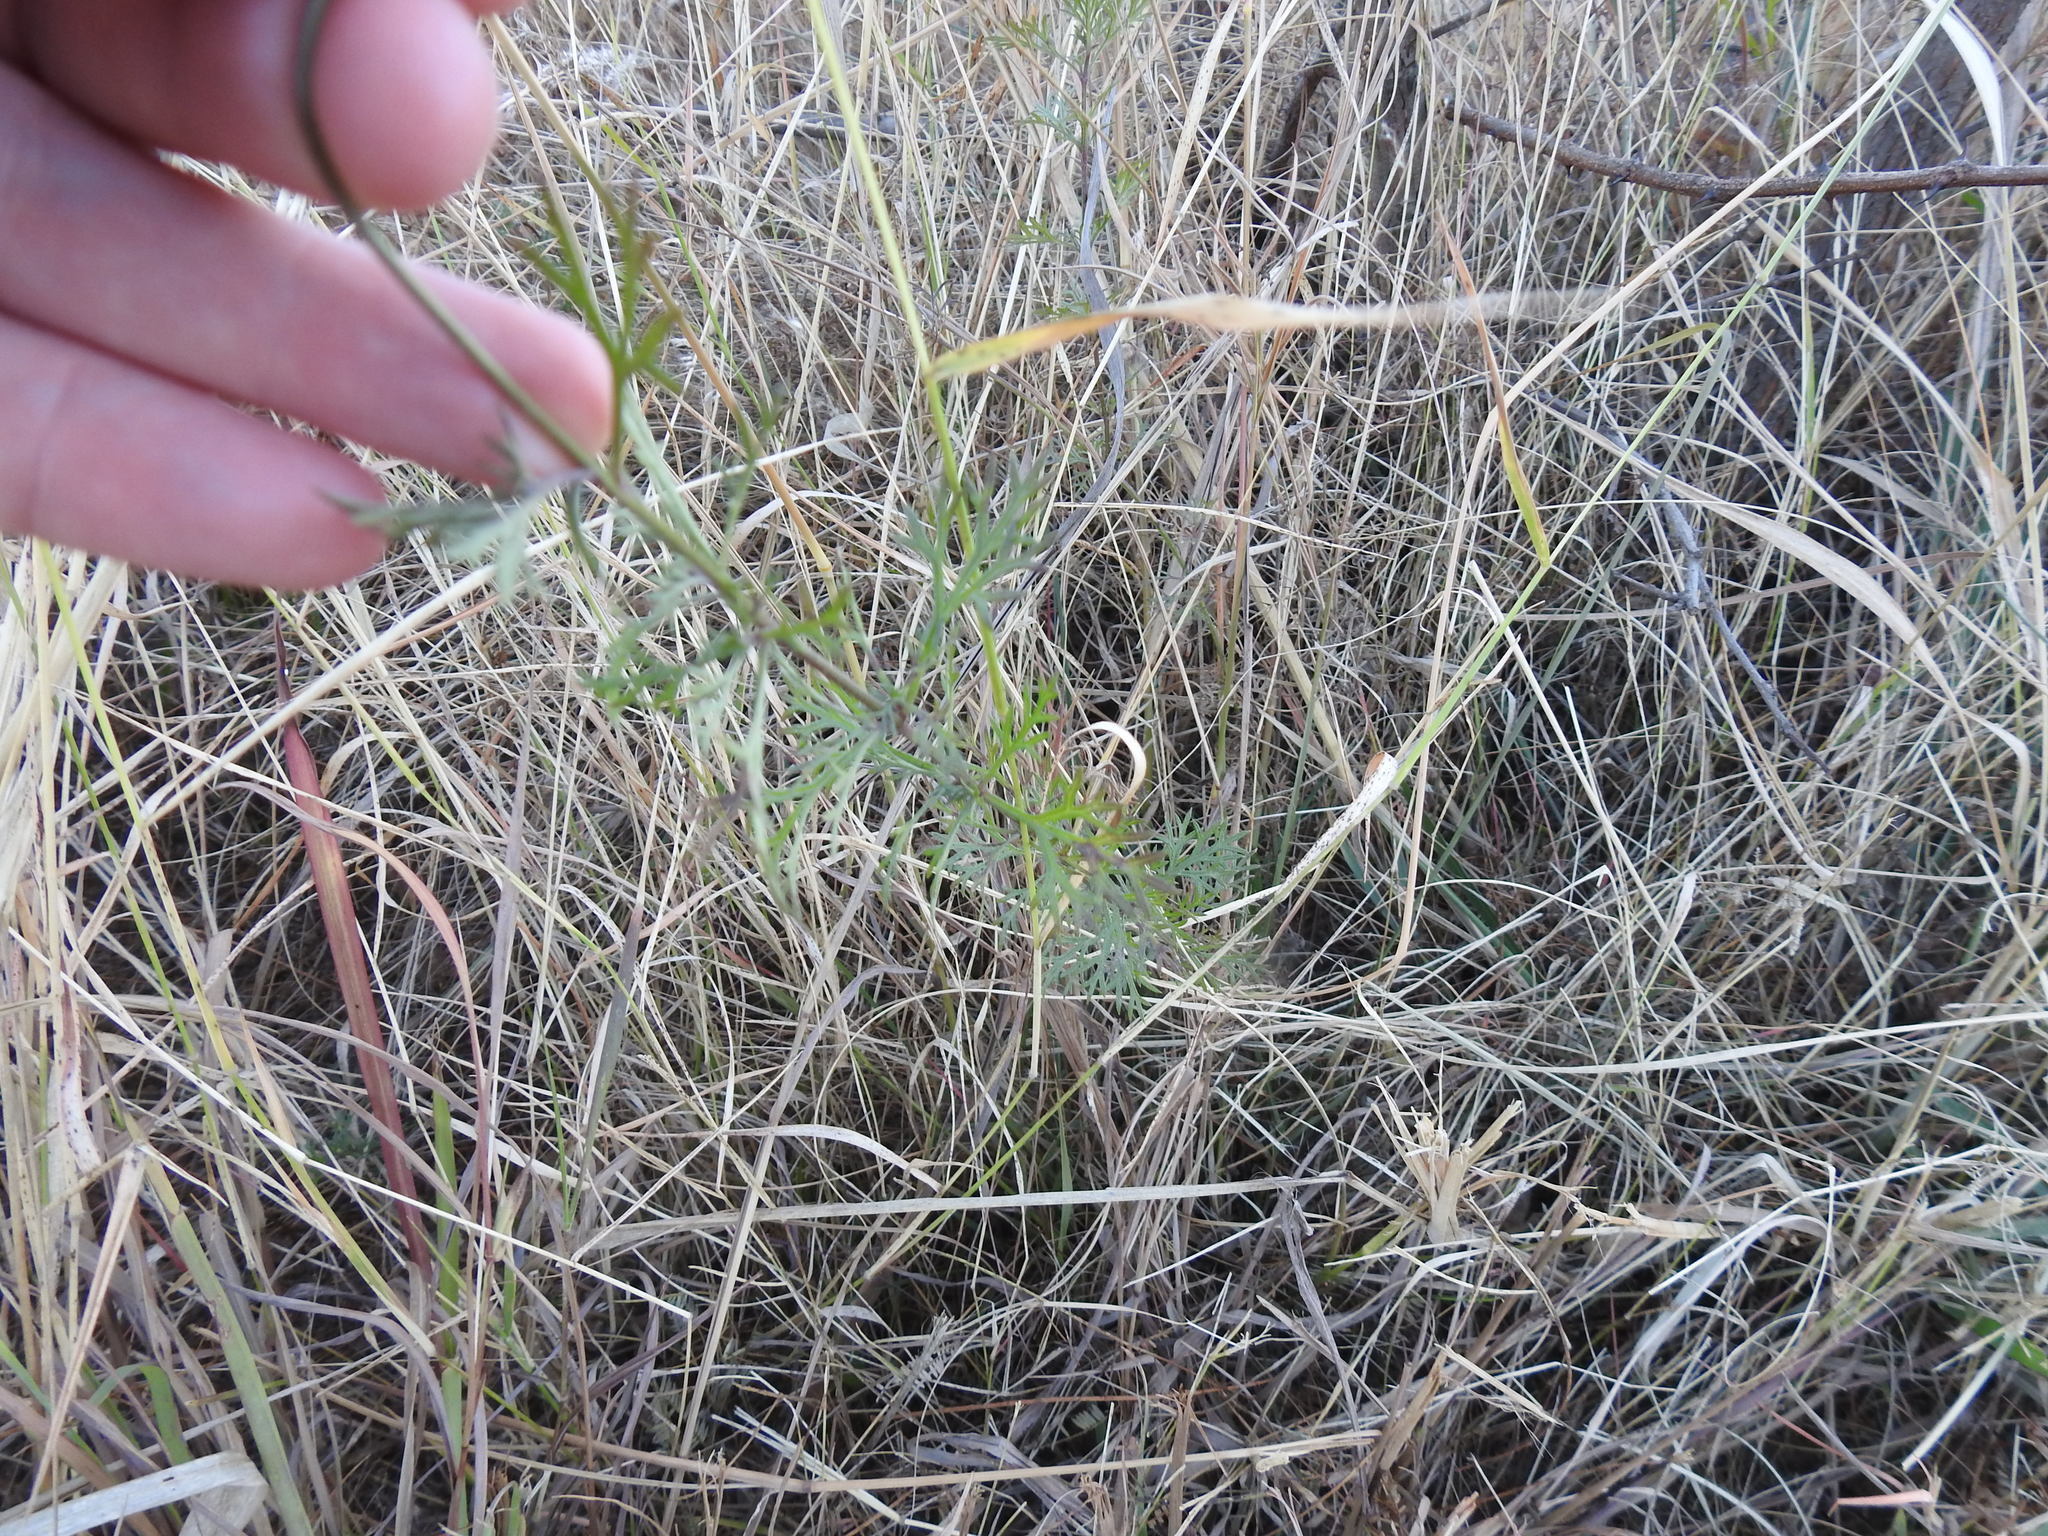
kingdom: Plantae
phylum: Tracheophyta
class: Magnoliopsida
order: Lamiales
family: Verbenaceae
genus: Verbena
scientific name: Verbena aristigera
